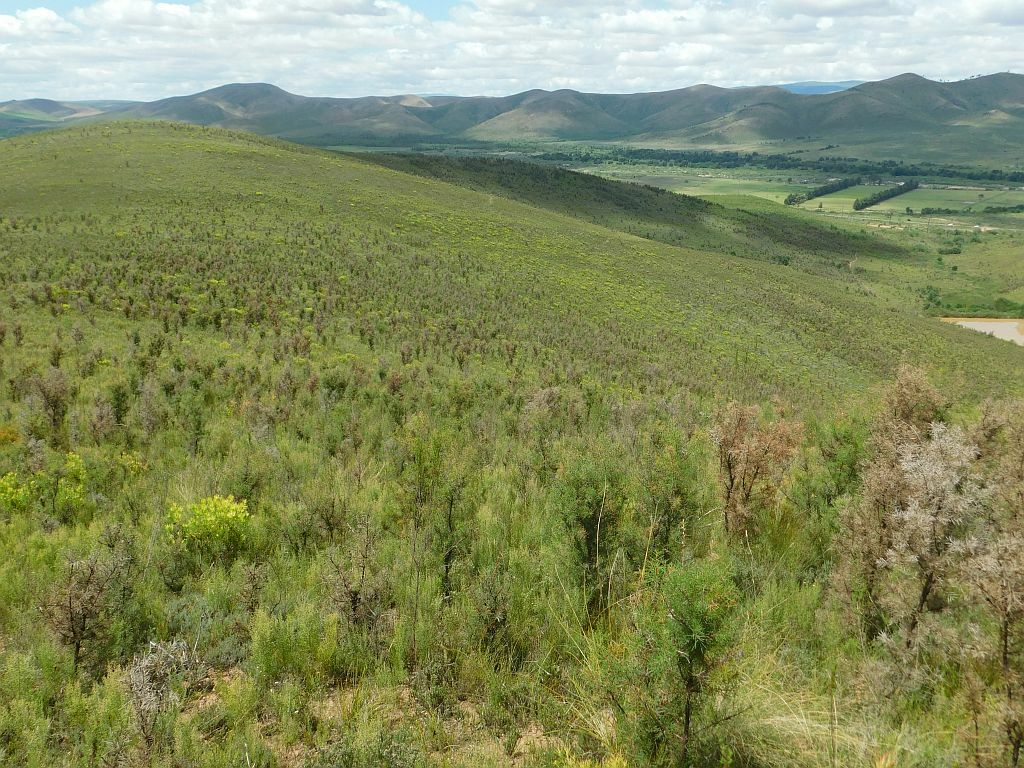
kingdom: Fungi
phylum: Ascomycota
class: Sordariomycetes
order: Glomerellales
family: Glomerellaceae
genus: Colletotrichum
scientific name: Colletotrichum acutatum
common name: Hakea gummosis fungus
